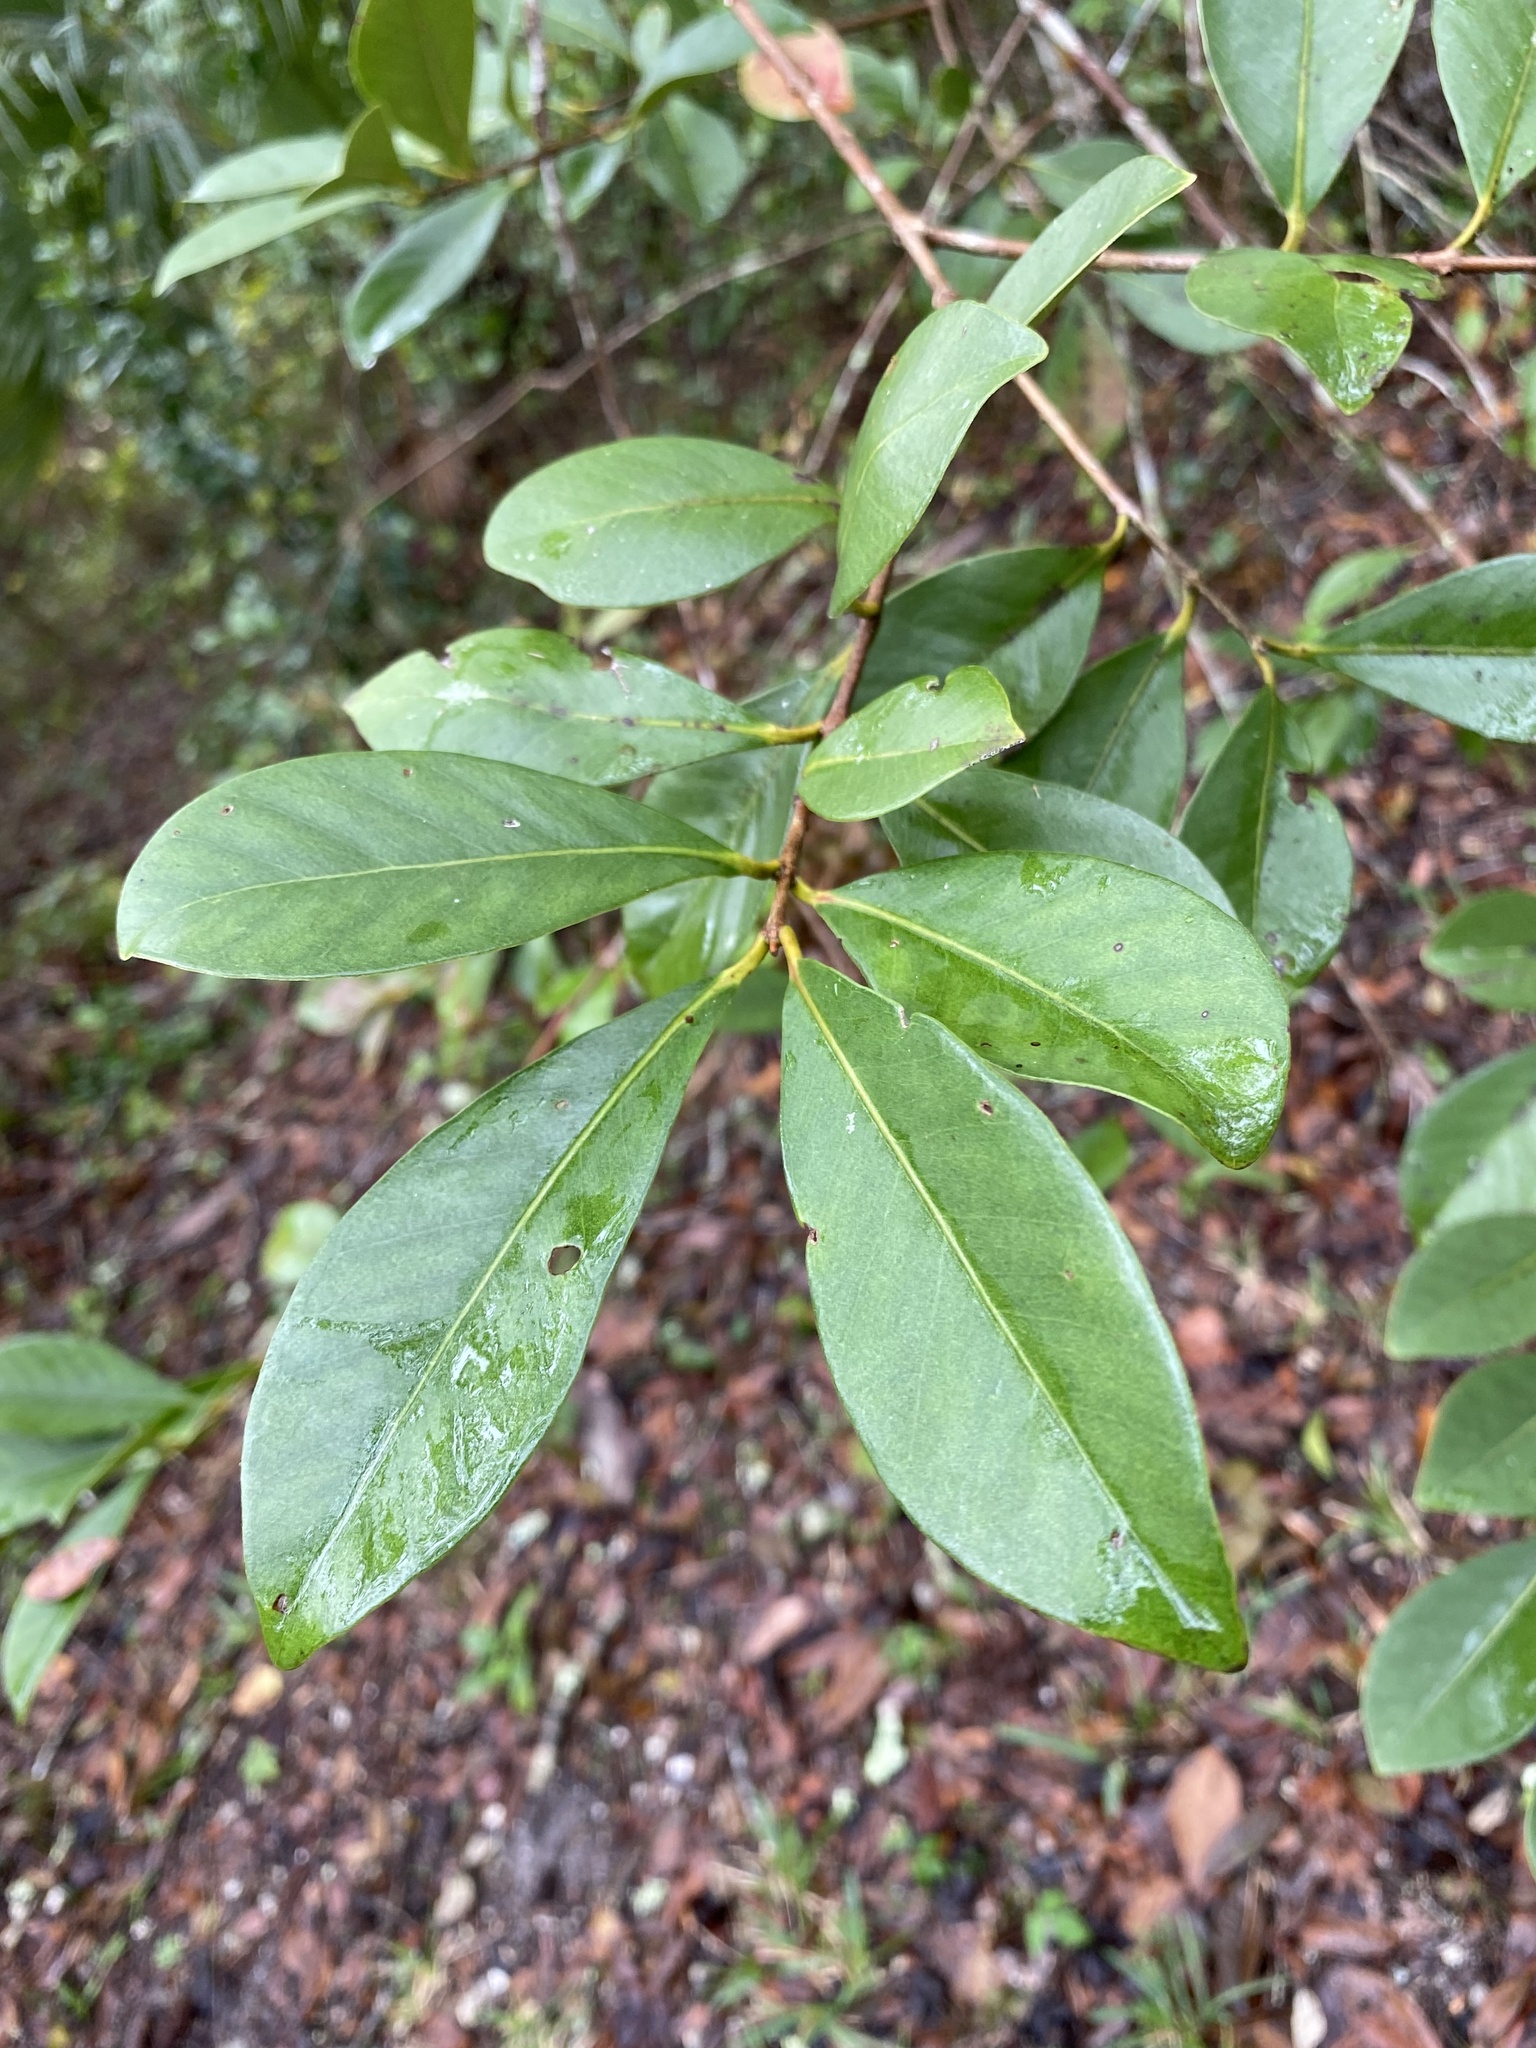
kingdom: Plantae
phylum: Tracheophyta
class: Magnoliopsida
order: Myrtales
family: Myrtaceae
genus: Psidium
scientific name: Psidium cattleianum
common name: Strawberry guava
